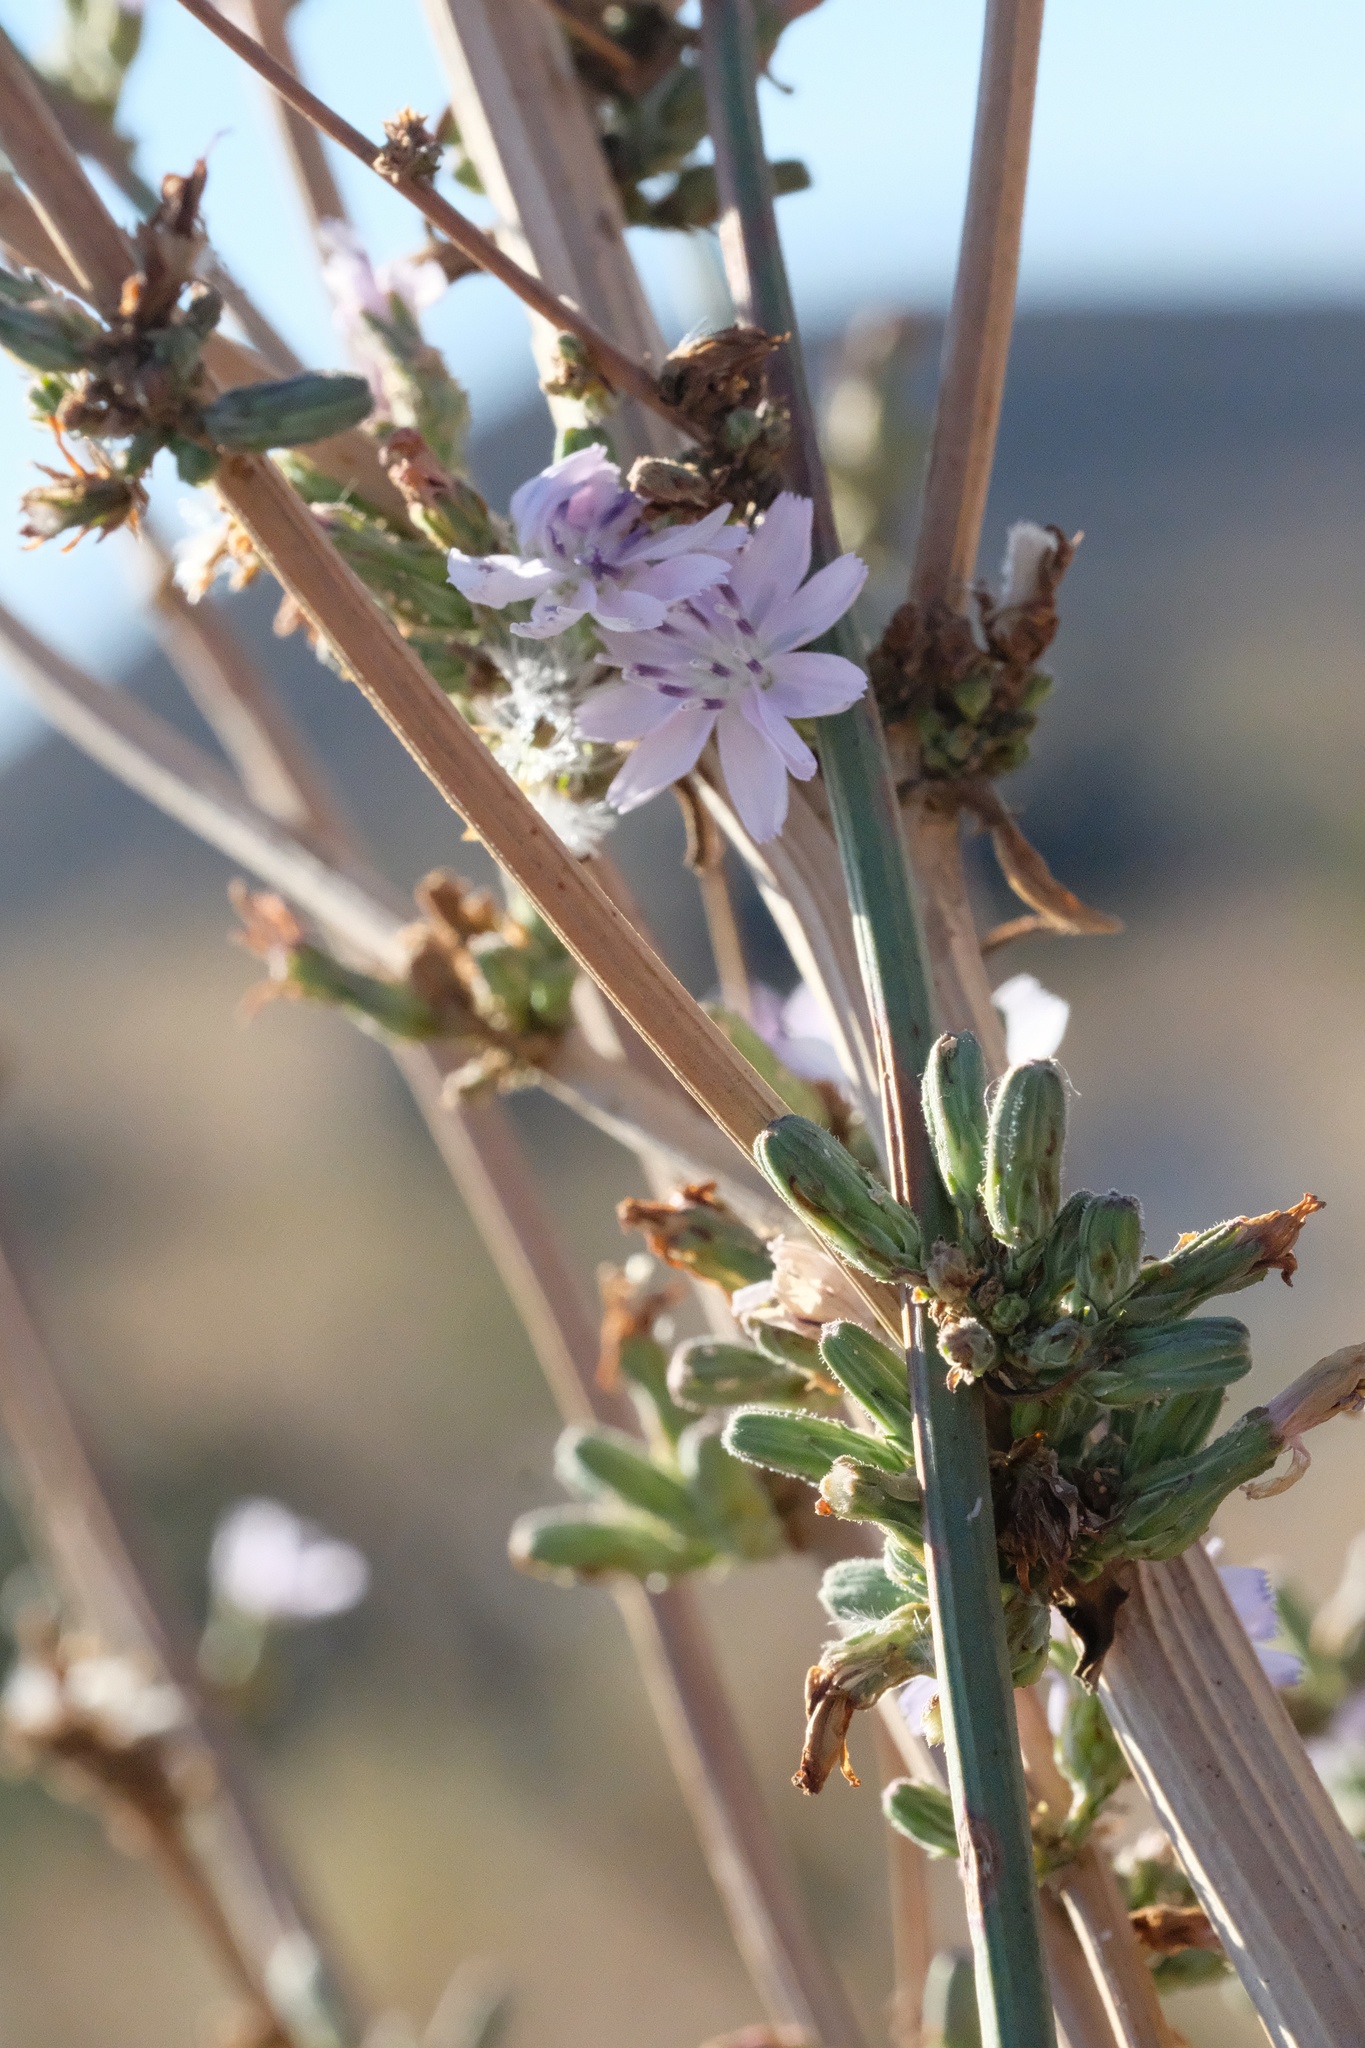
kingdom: Plantae
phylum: Tracheophyta
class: Magnoliopsida
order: Asterales
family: Asteraceae
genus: Stephanomeria
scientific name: Stephanomeria diegensis
